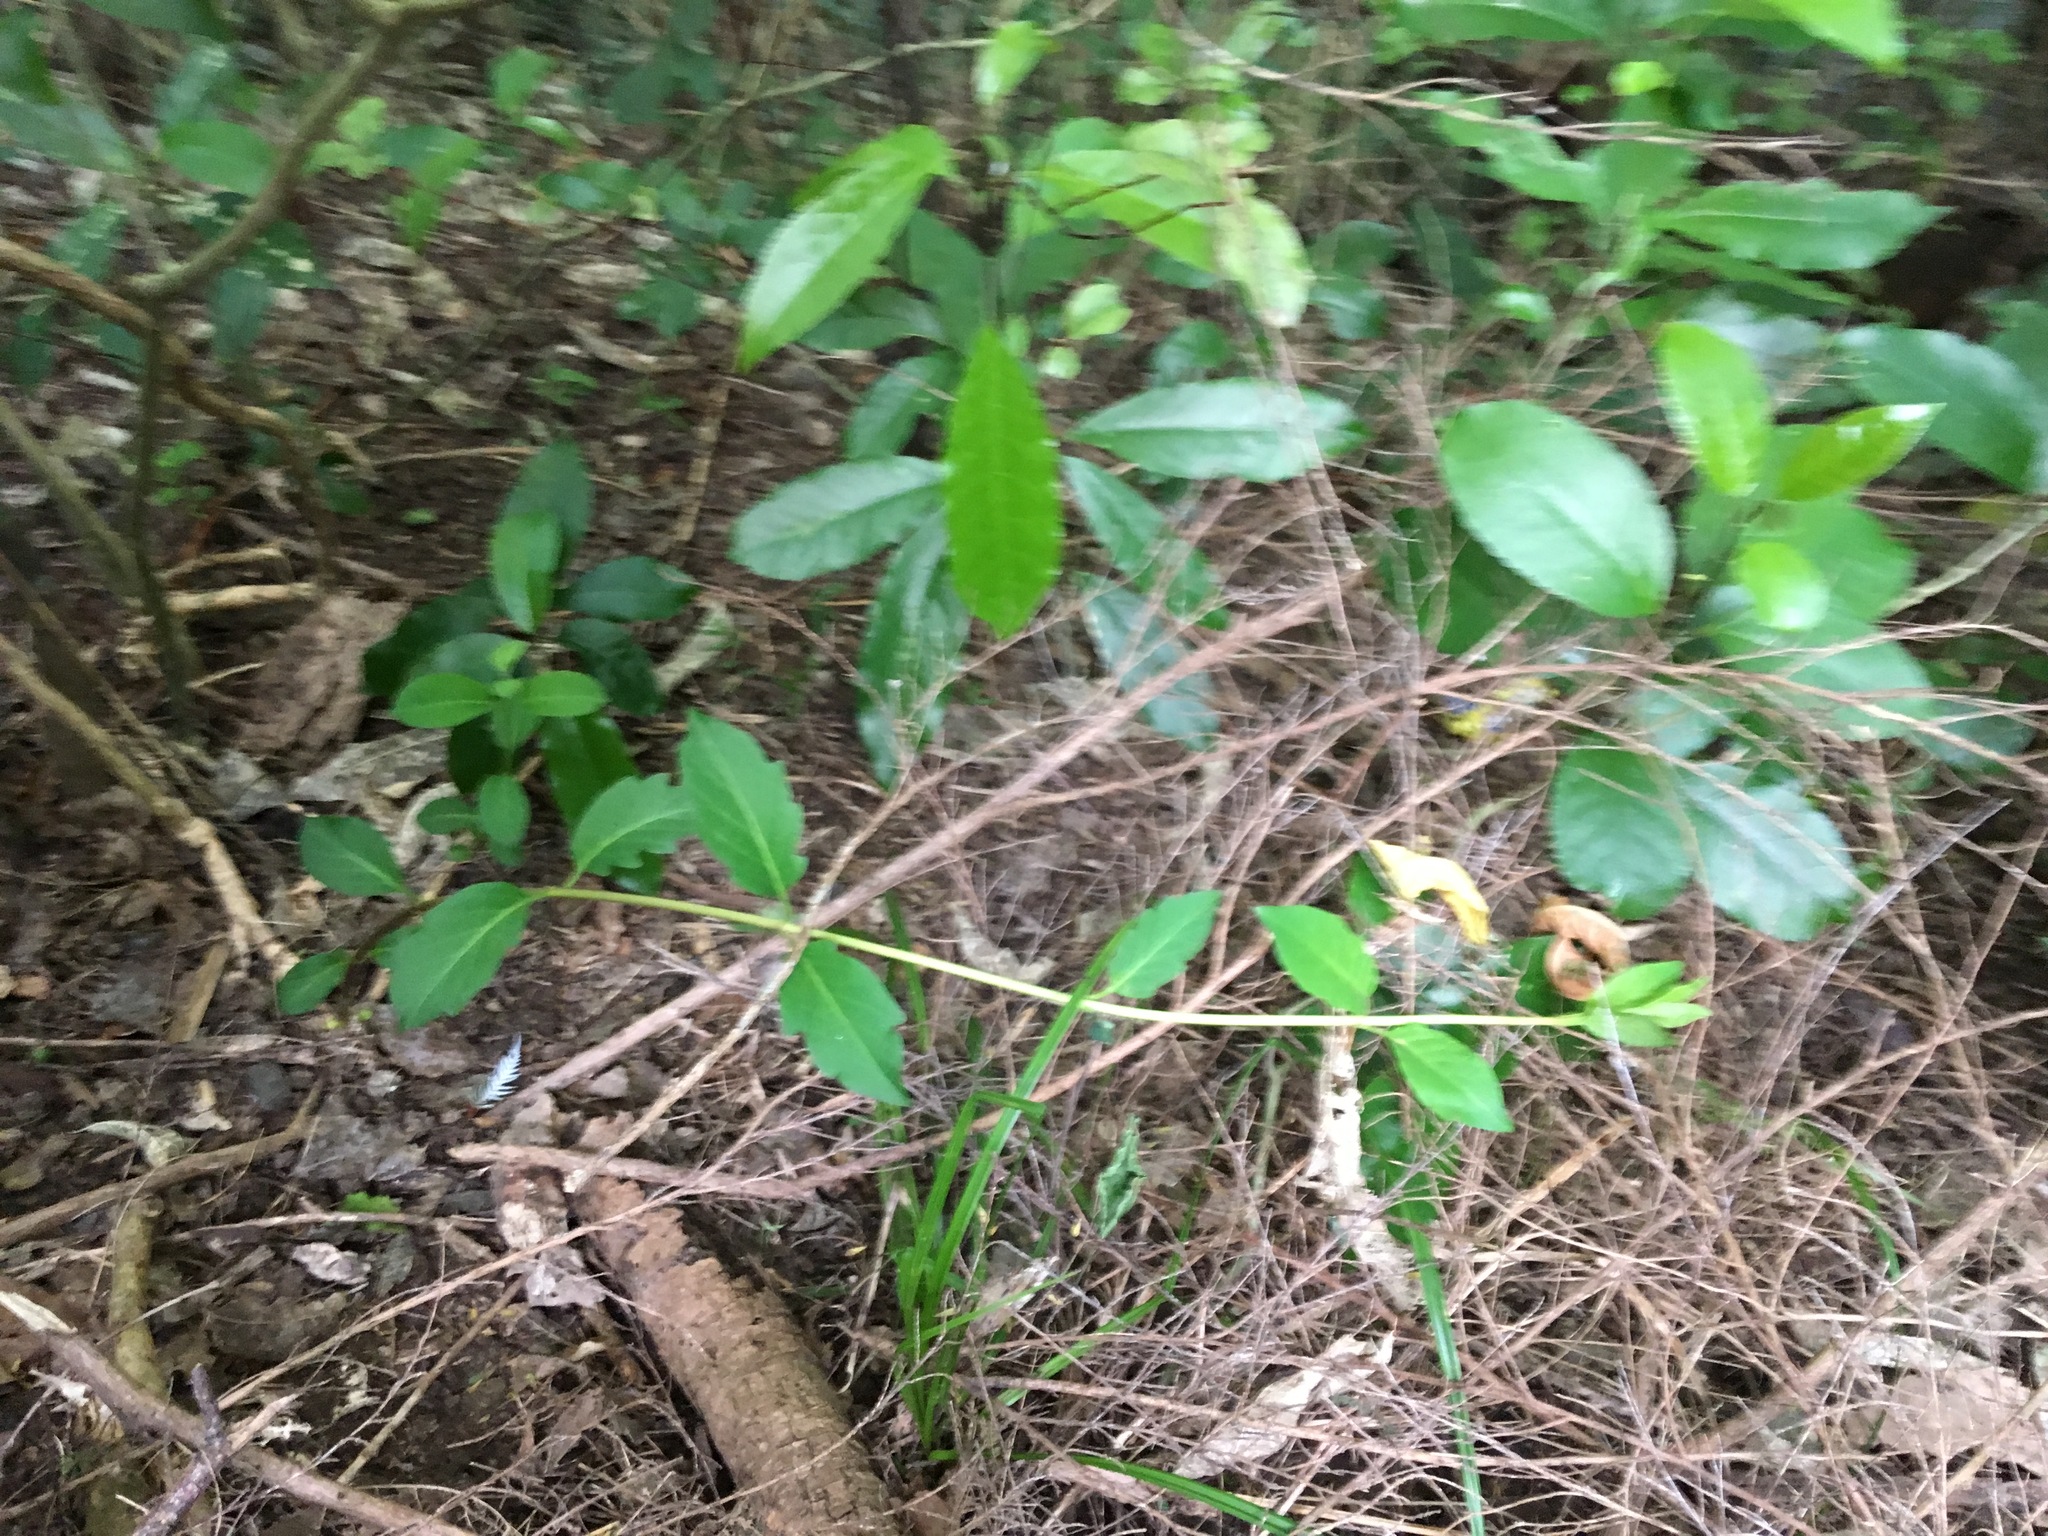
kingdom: Plantae
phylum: Tracheophyta
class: Magnoliopsida
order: Dipsacales
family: Caprifoliaceae
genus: Lonicera
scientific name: Lonicera japonica
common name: Japanese honeysuckle
